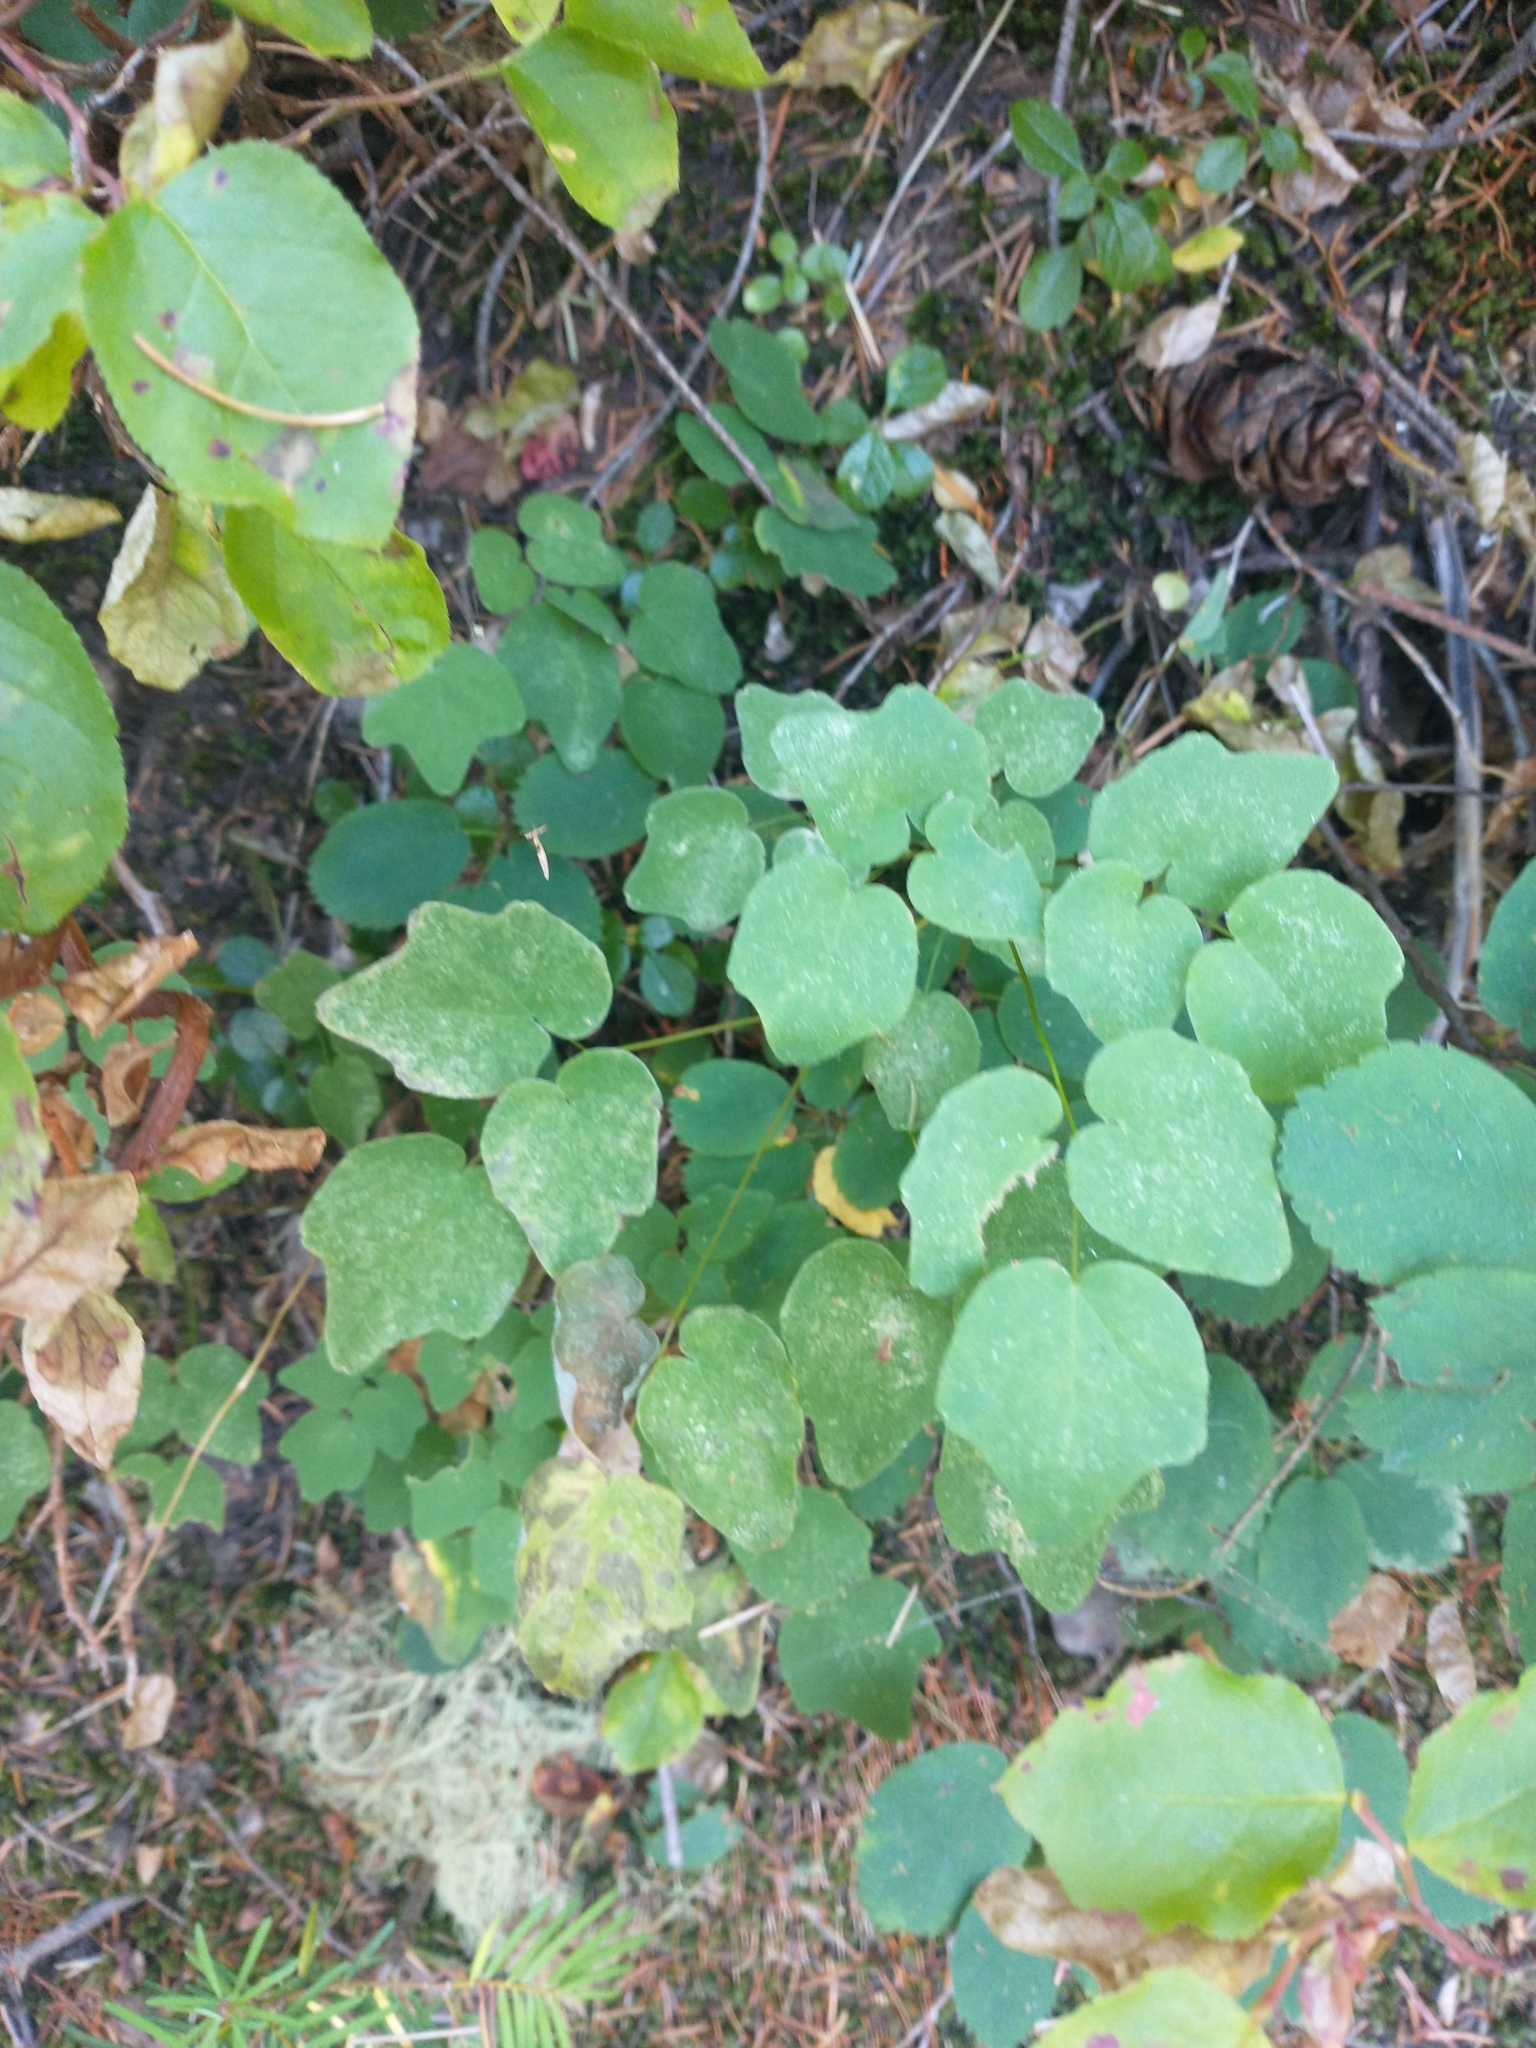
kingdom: Plantae
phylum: Tracheophyta
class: Magnoliopsida
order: Ranunculales
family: Berberidaceae
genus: Vancouveria
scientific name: Vancouveria hexandra
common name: Northern inside-out-flower
